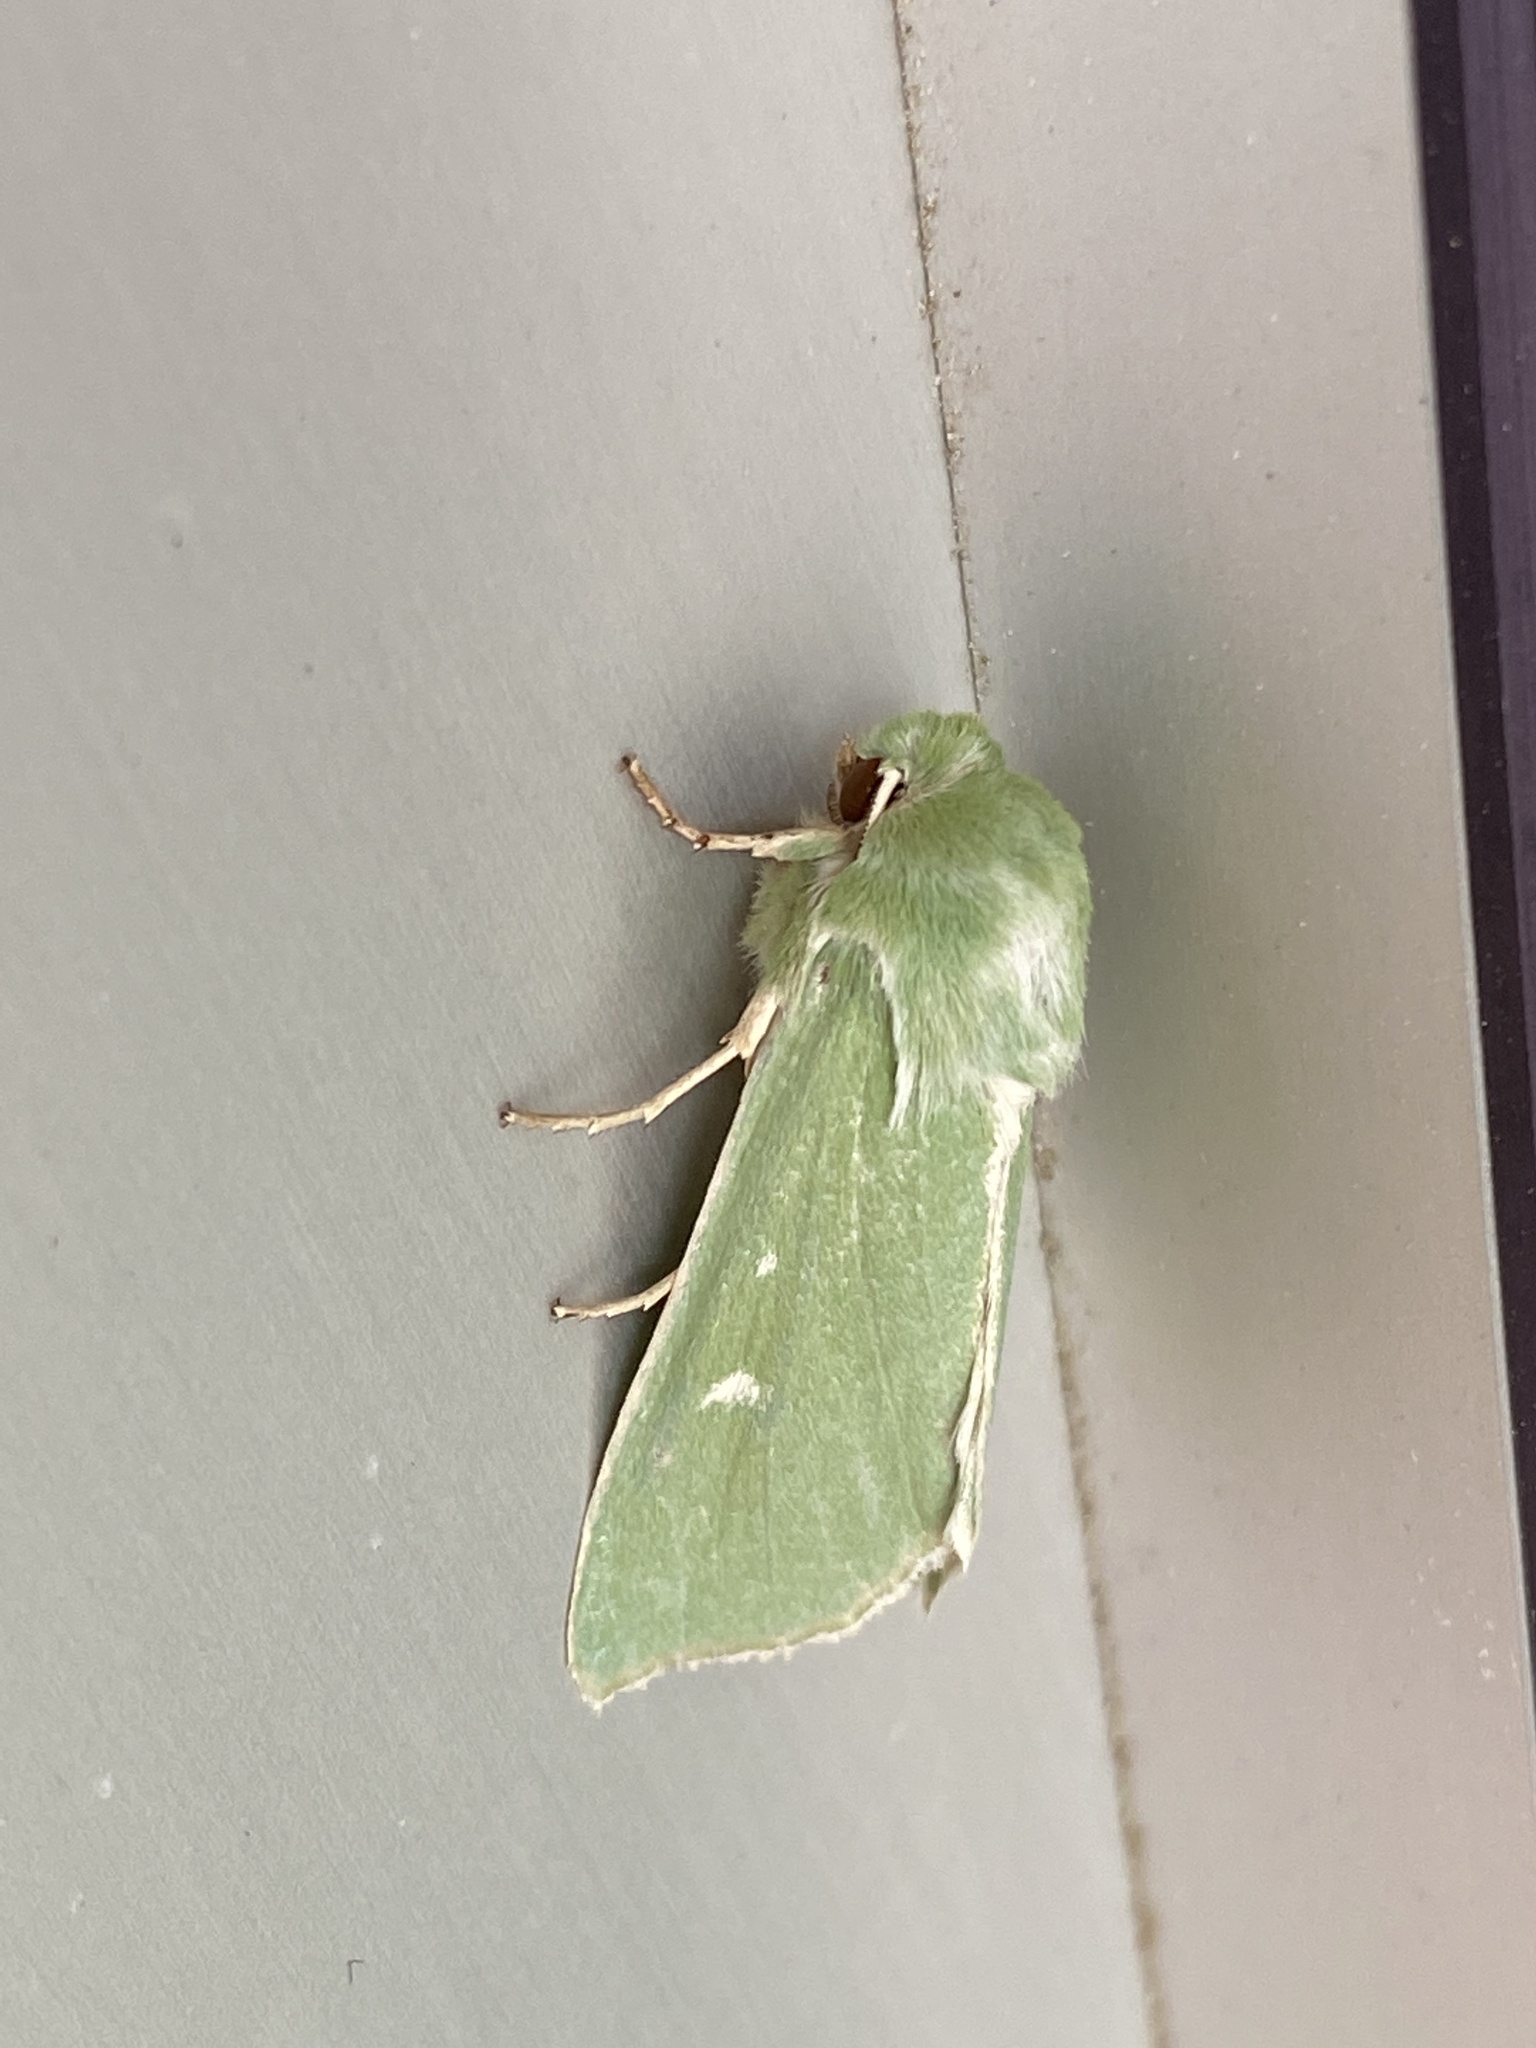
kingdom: Animalia
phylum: Arthropoda
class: Insecta
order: Lepidoptera
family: Noctuidae
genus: Calamia
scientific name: Calamia tridens
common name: Burren green
